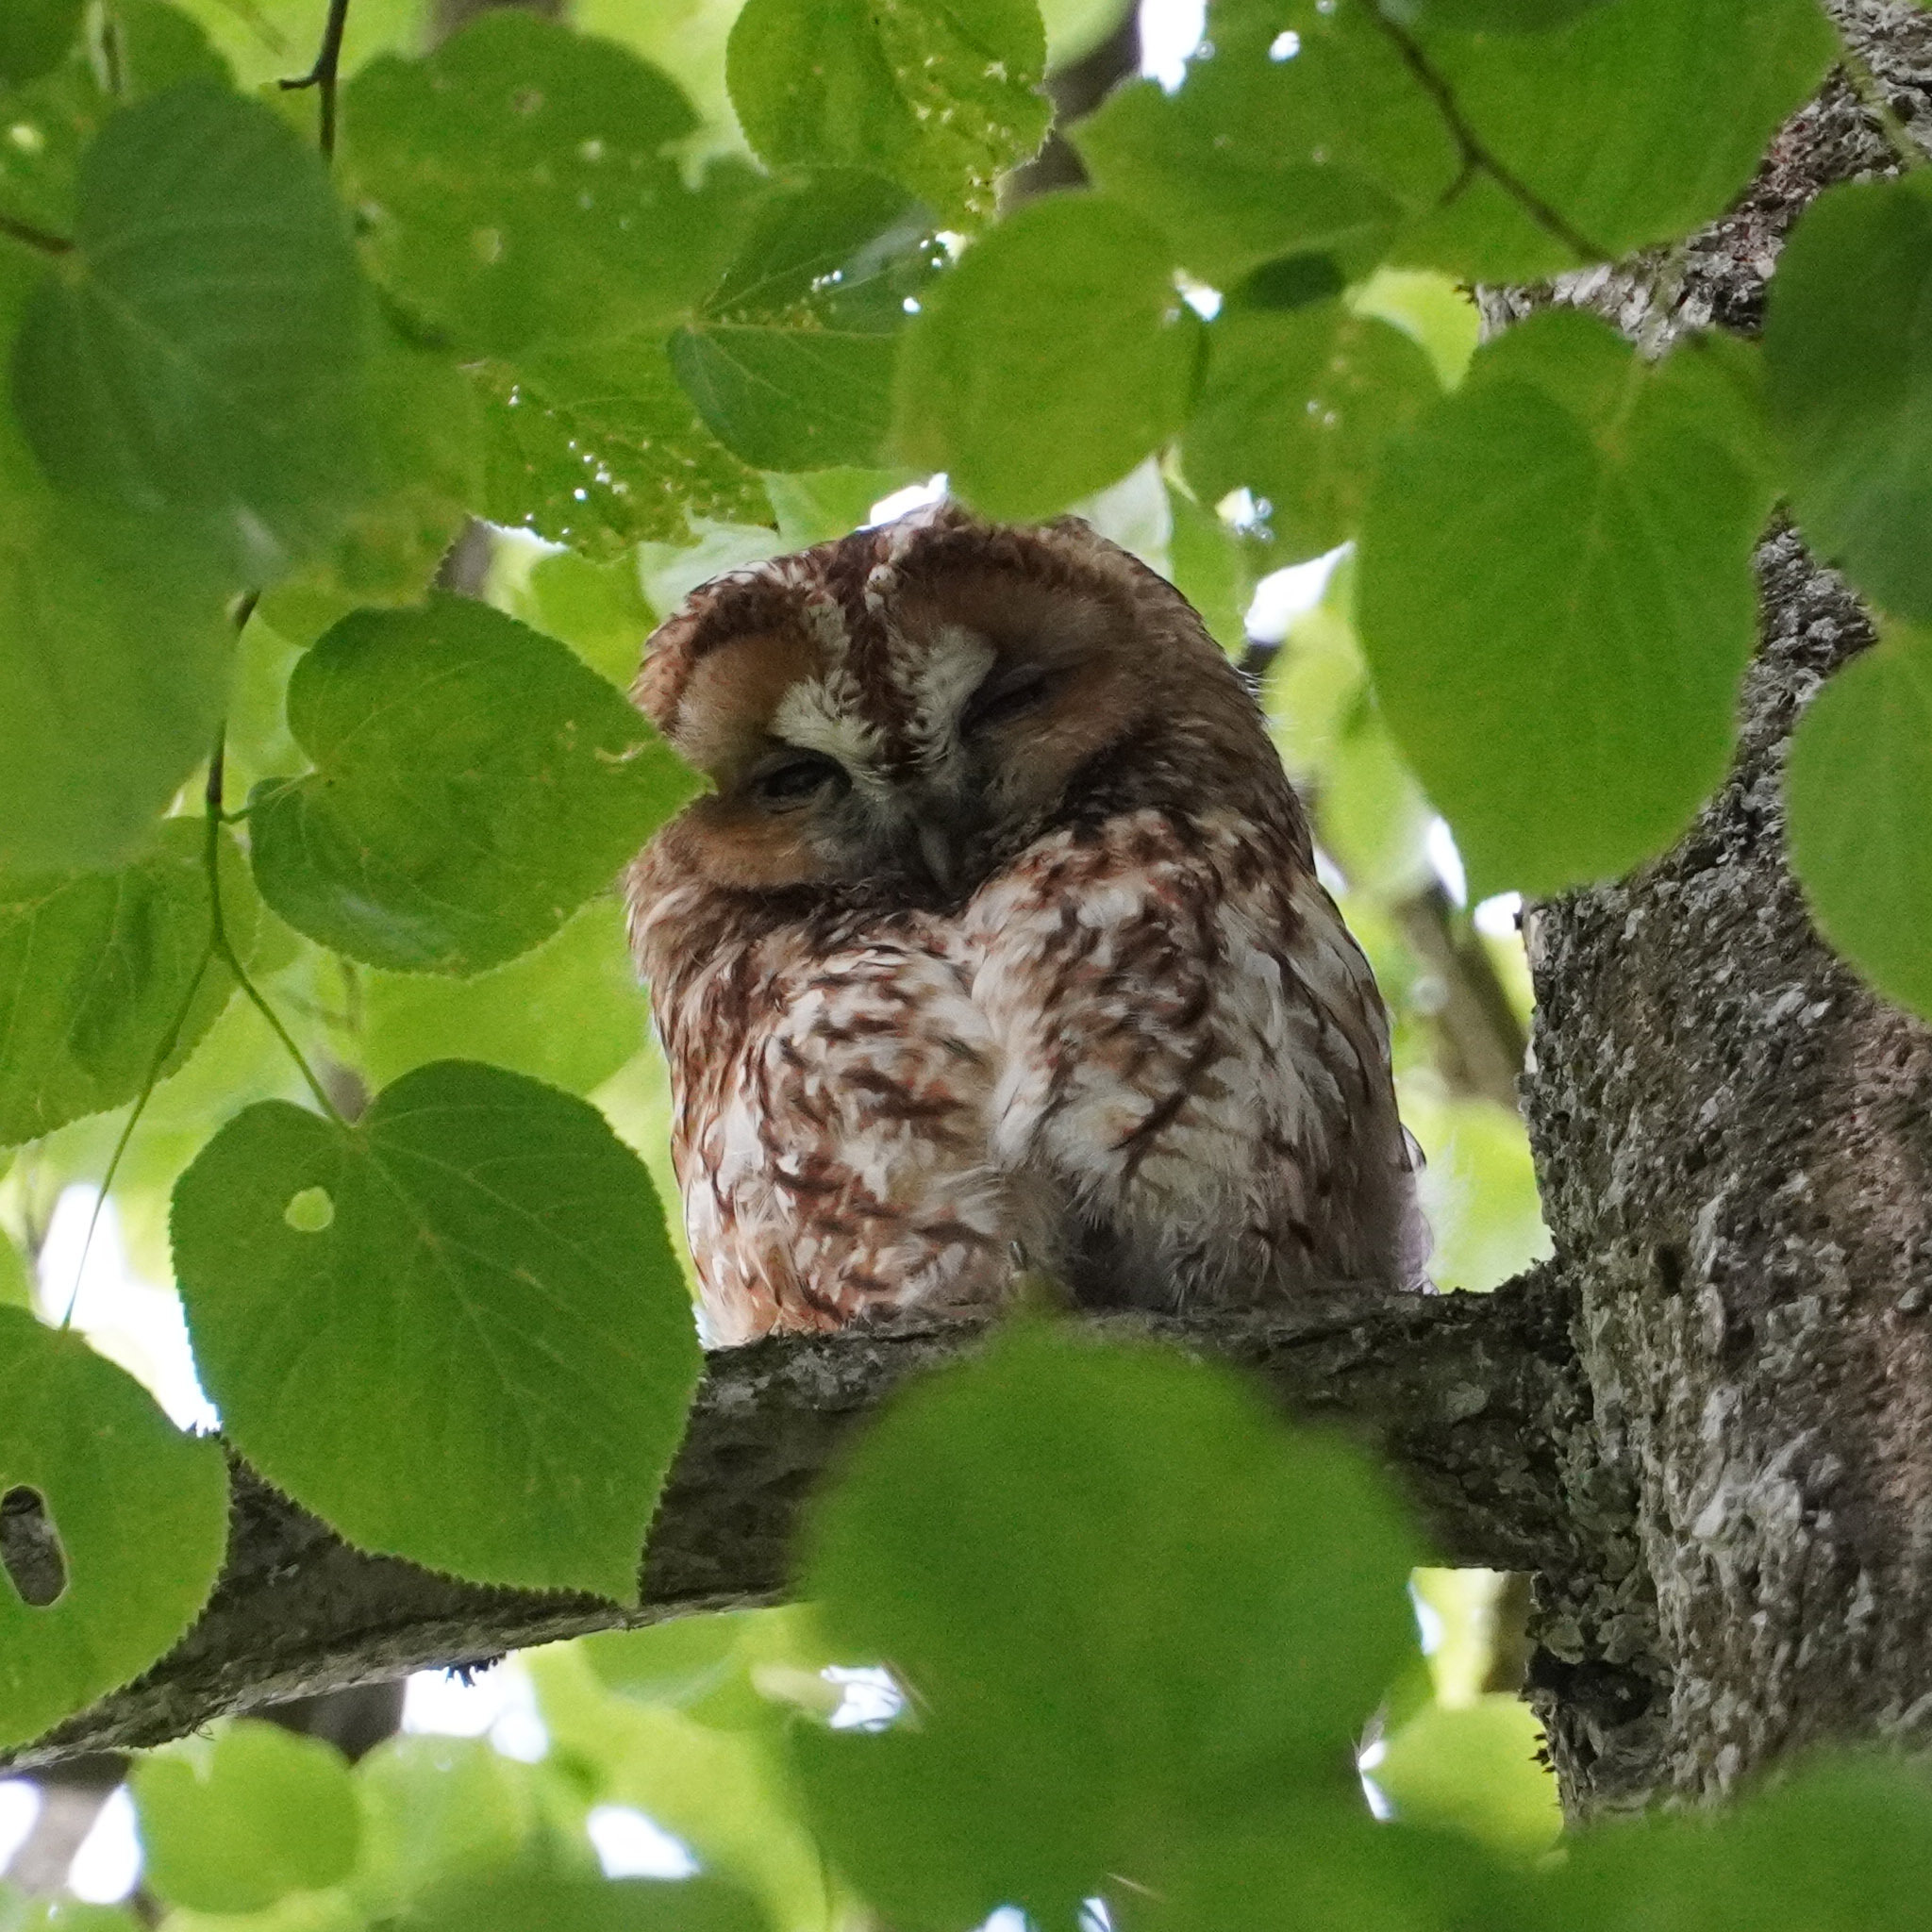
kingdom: Animalia
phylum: Chordata
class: Aves
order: Strigiformes
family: Strigidae
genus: Strix
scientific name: Strix aluco
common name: Tawny owl
